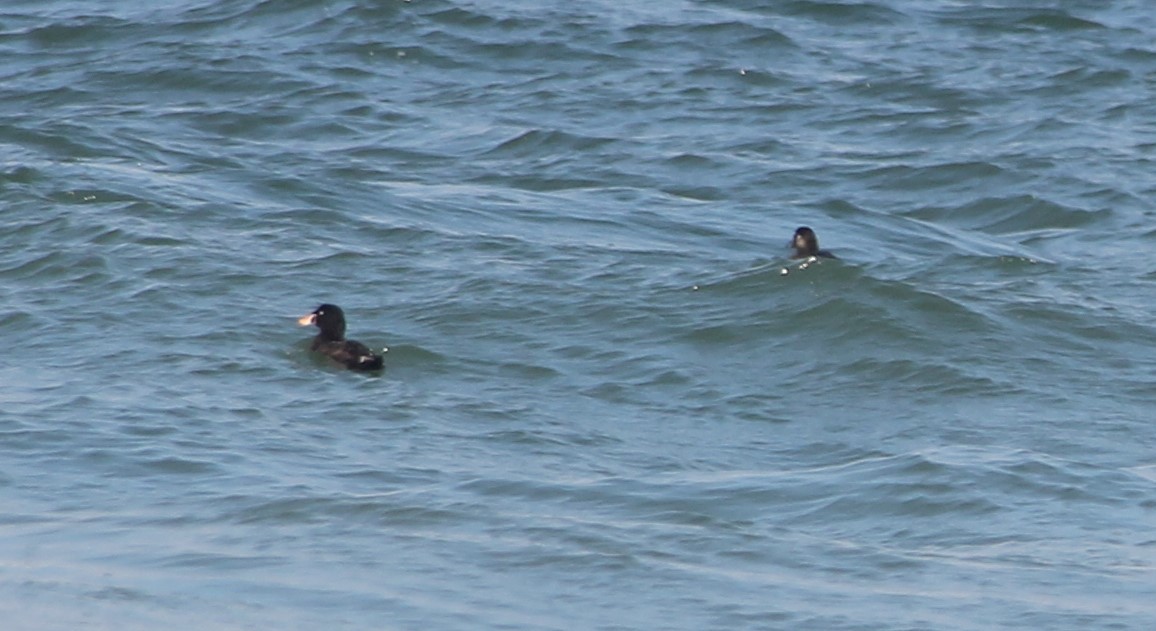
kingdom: Animalia
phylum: Chordata
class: Aves
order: Anseriformes
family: Anatidae
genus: Melanitta
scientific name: Melanitta perspicillata
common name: Surf scoter
